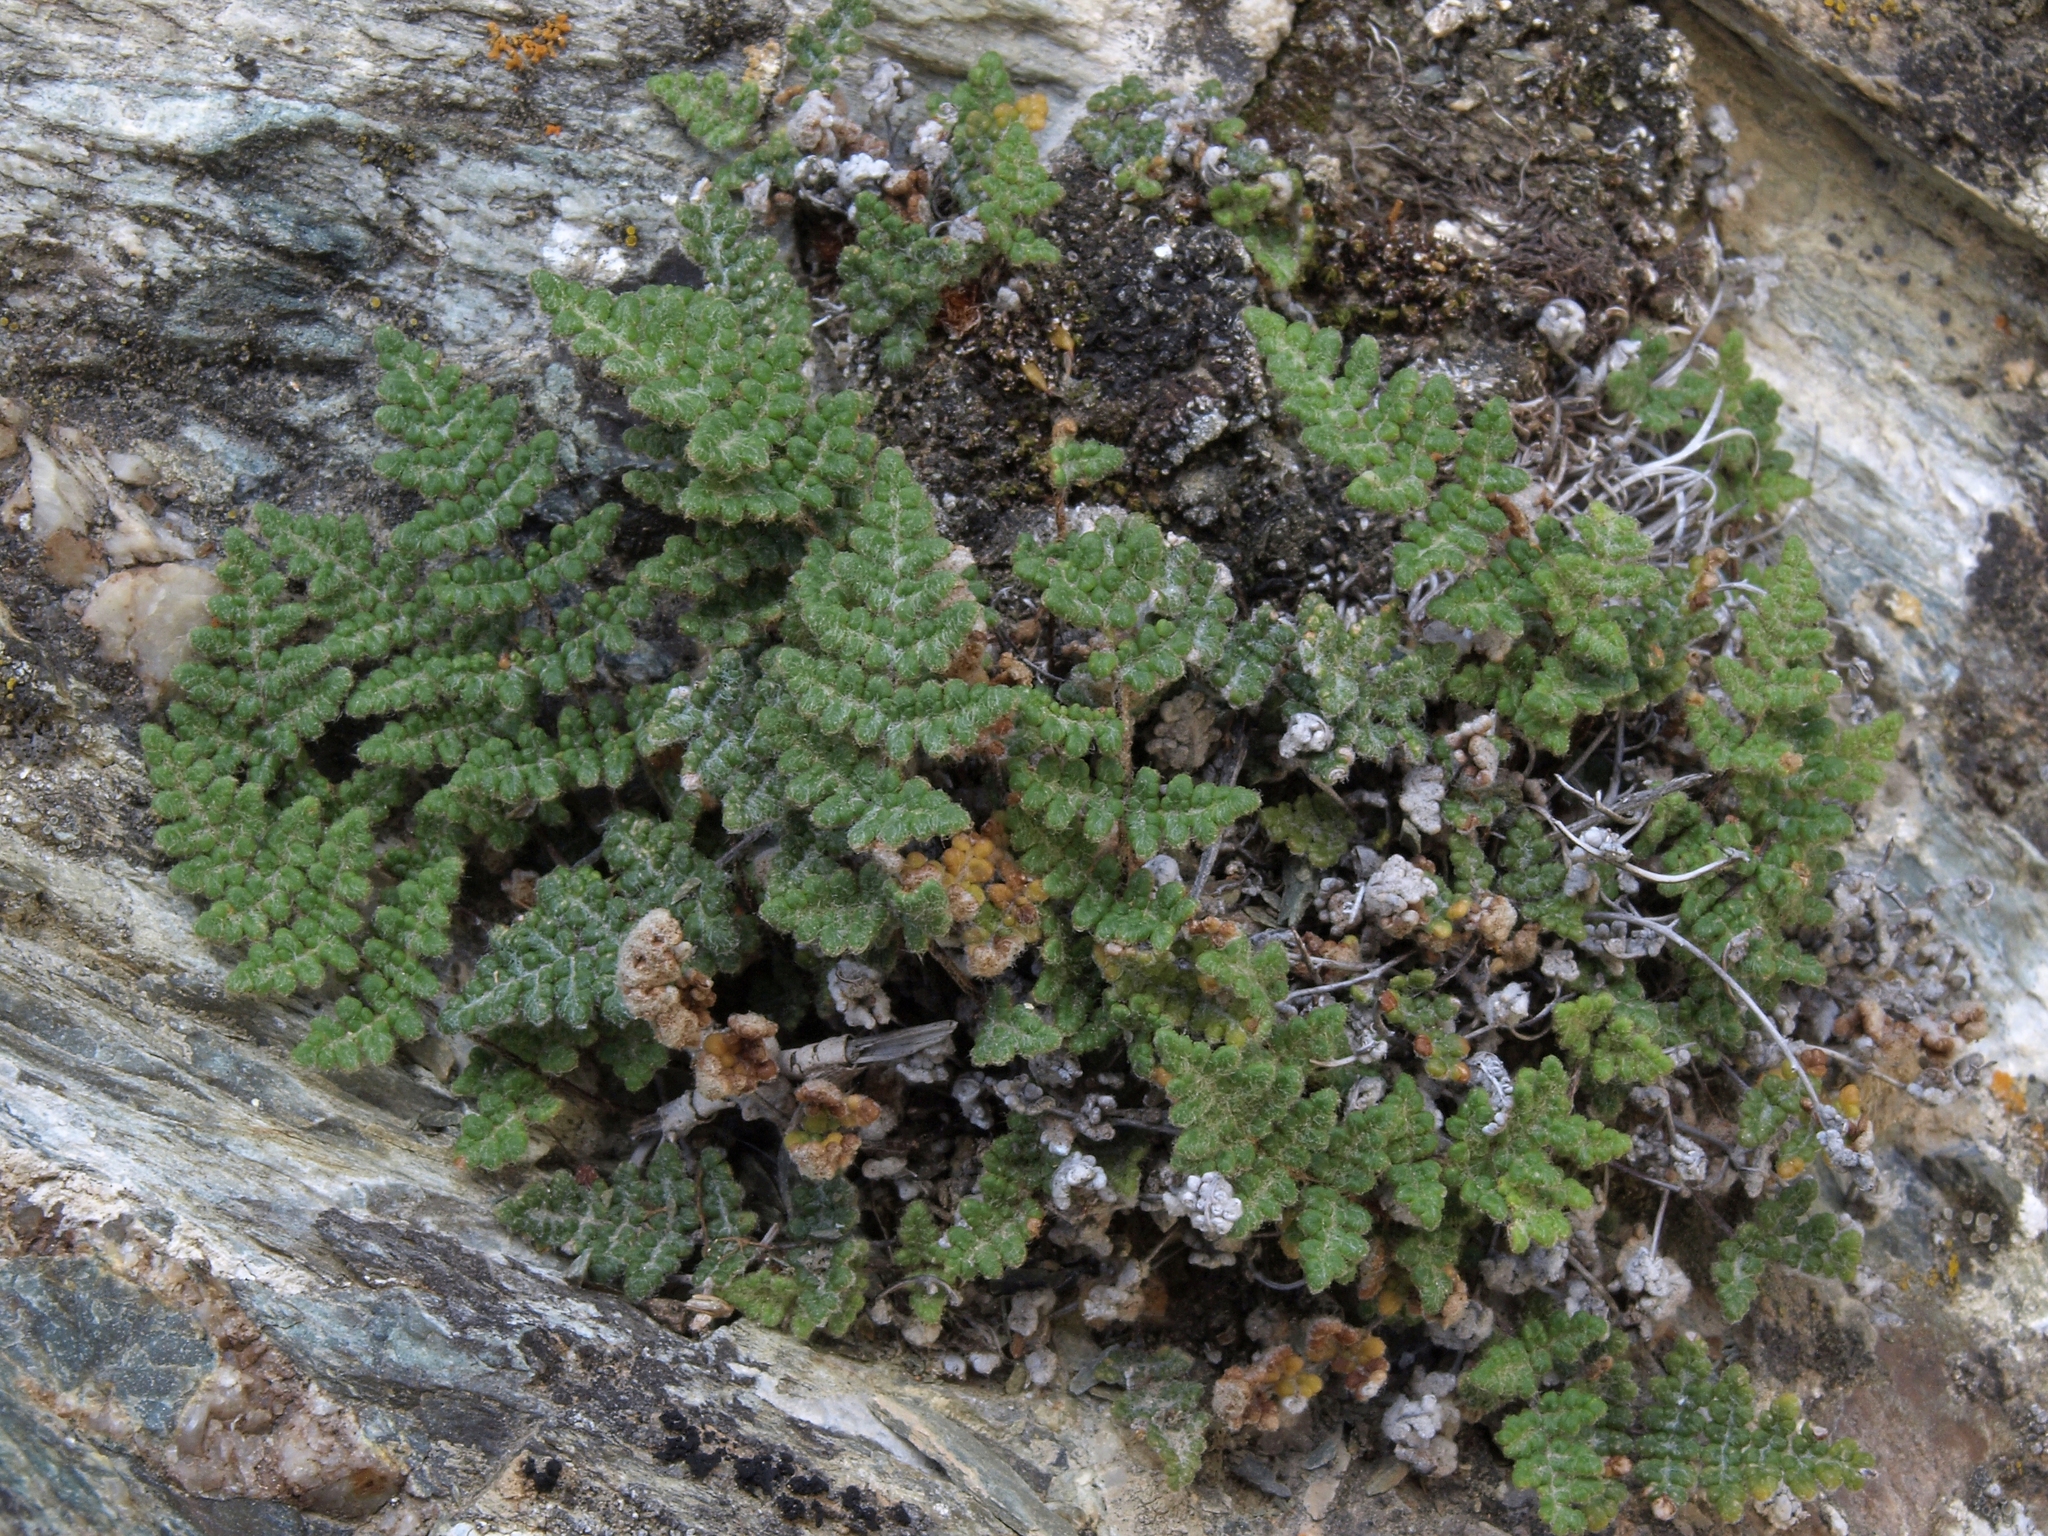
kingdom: Plantae
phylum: Tracheophyta
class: Polypodiopsida
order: Polypodiales
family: Pteridaceae
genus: Myriopteris
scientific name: Myriopteris gracilis
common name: Fee's lip fern
